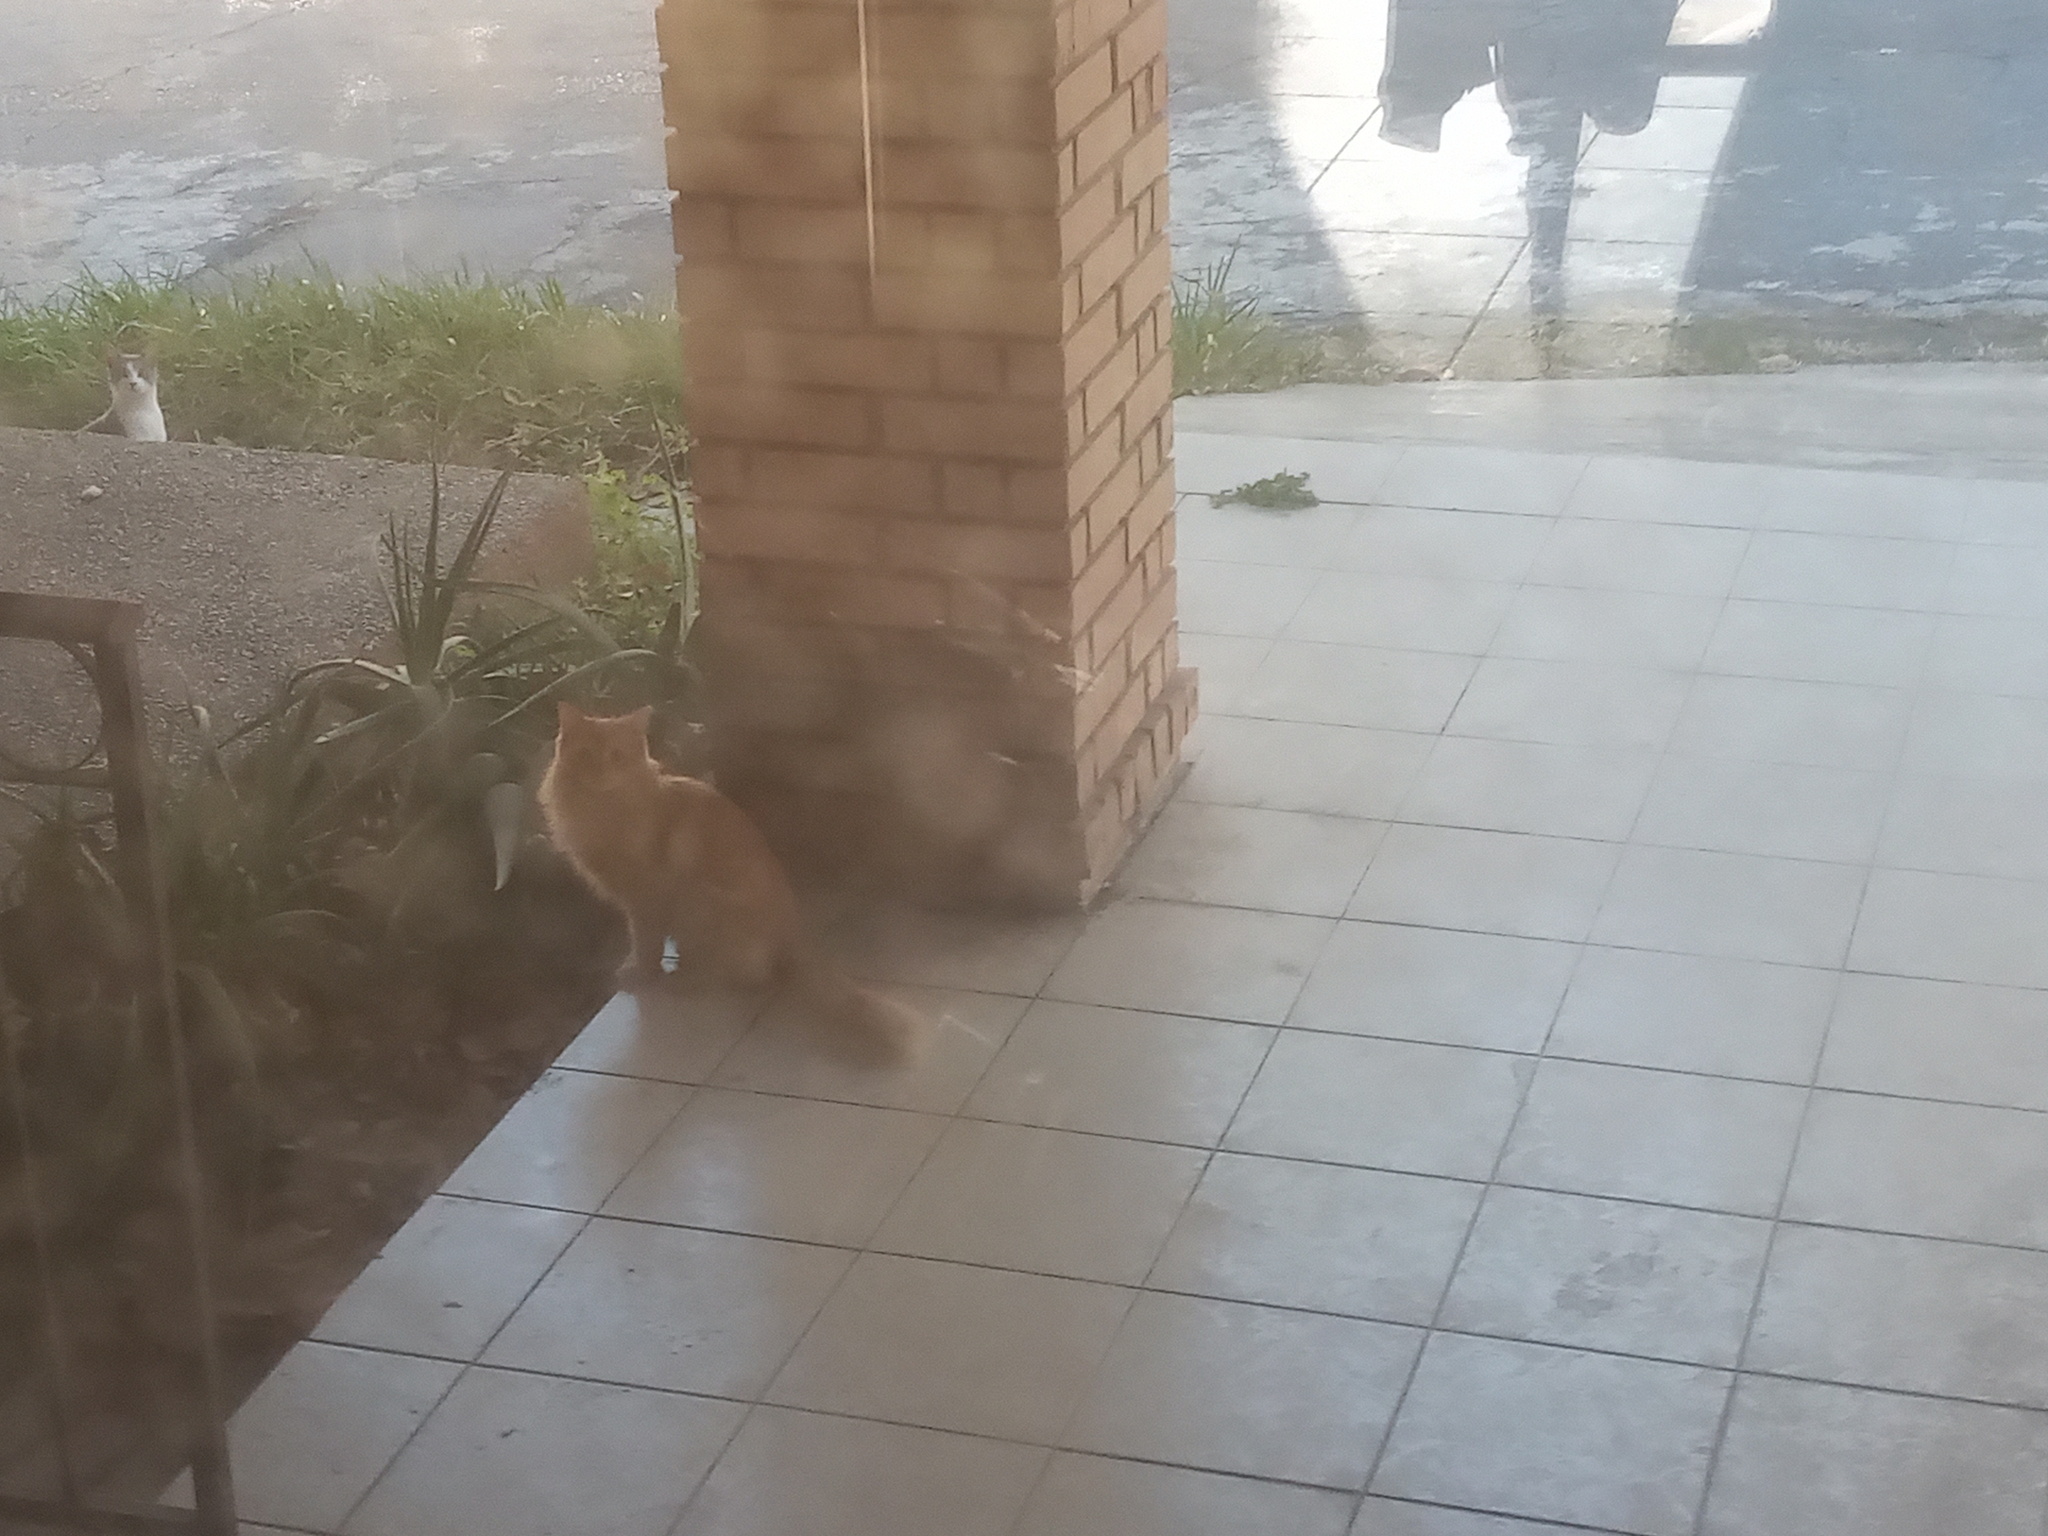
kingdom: Animalia
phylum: Chordata
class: Mammalia
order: Carnivora
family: Felidae
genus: Felis
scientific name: Felis catus
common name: Domestic cat
